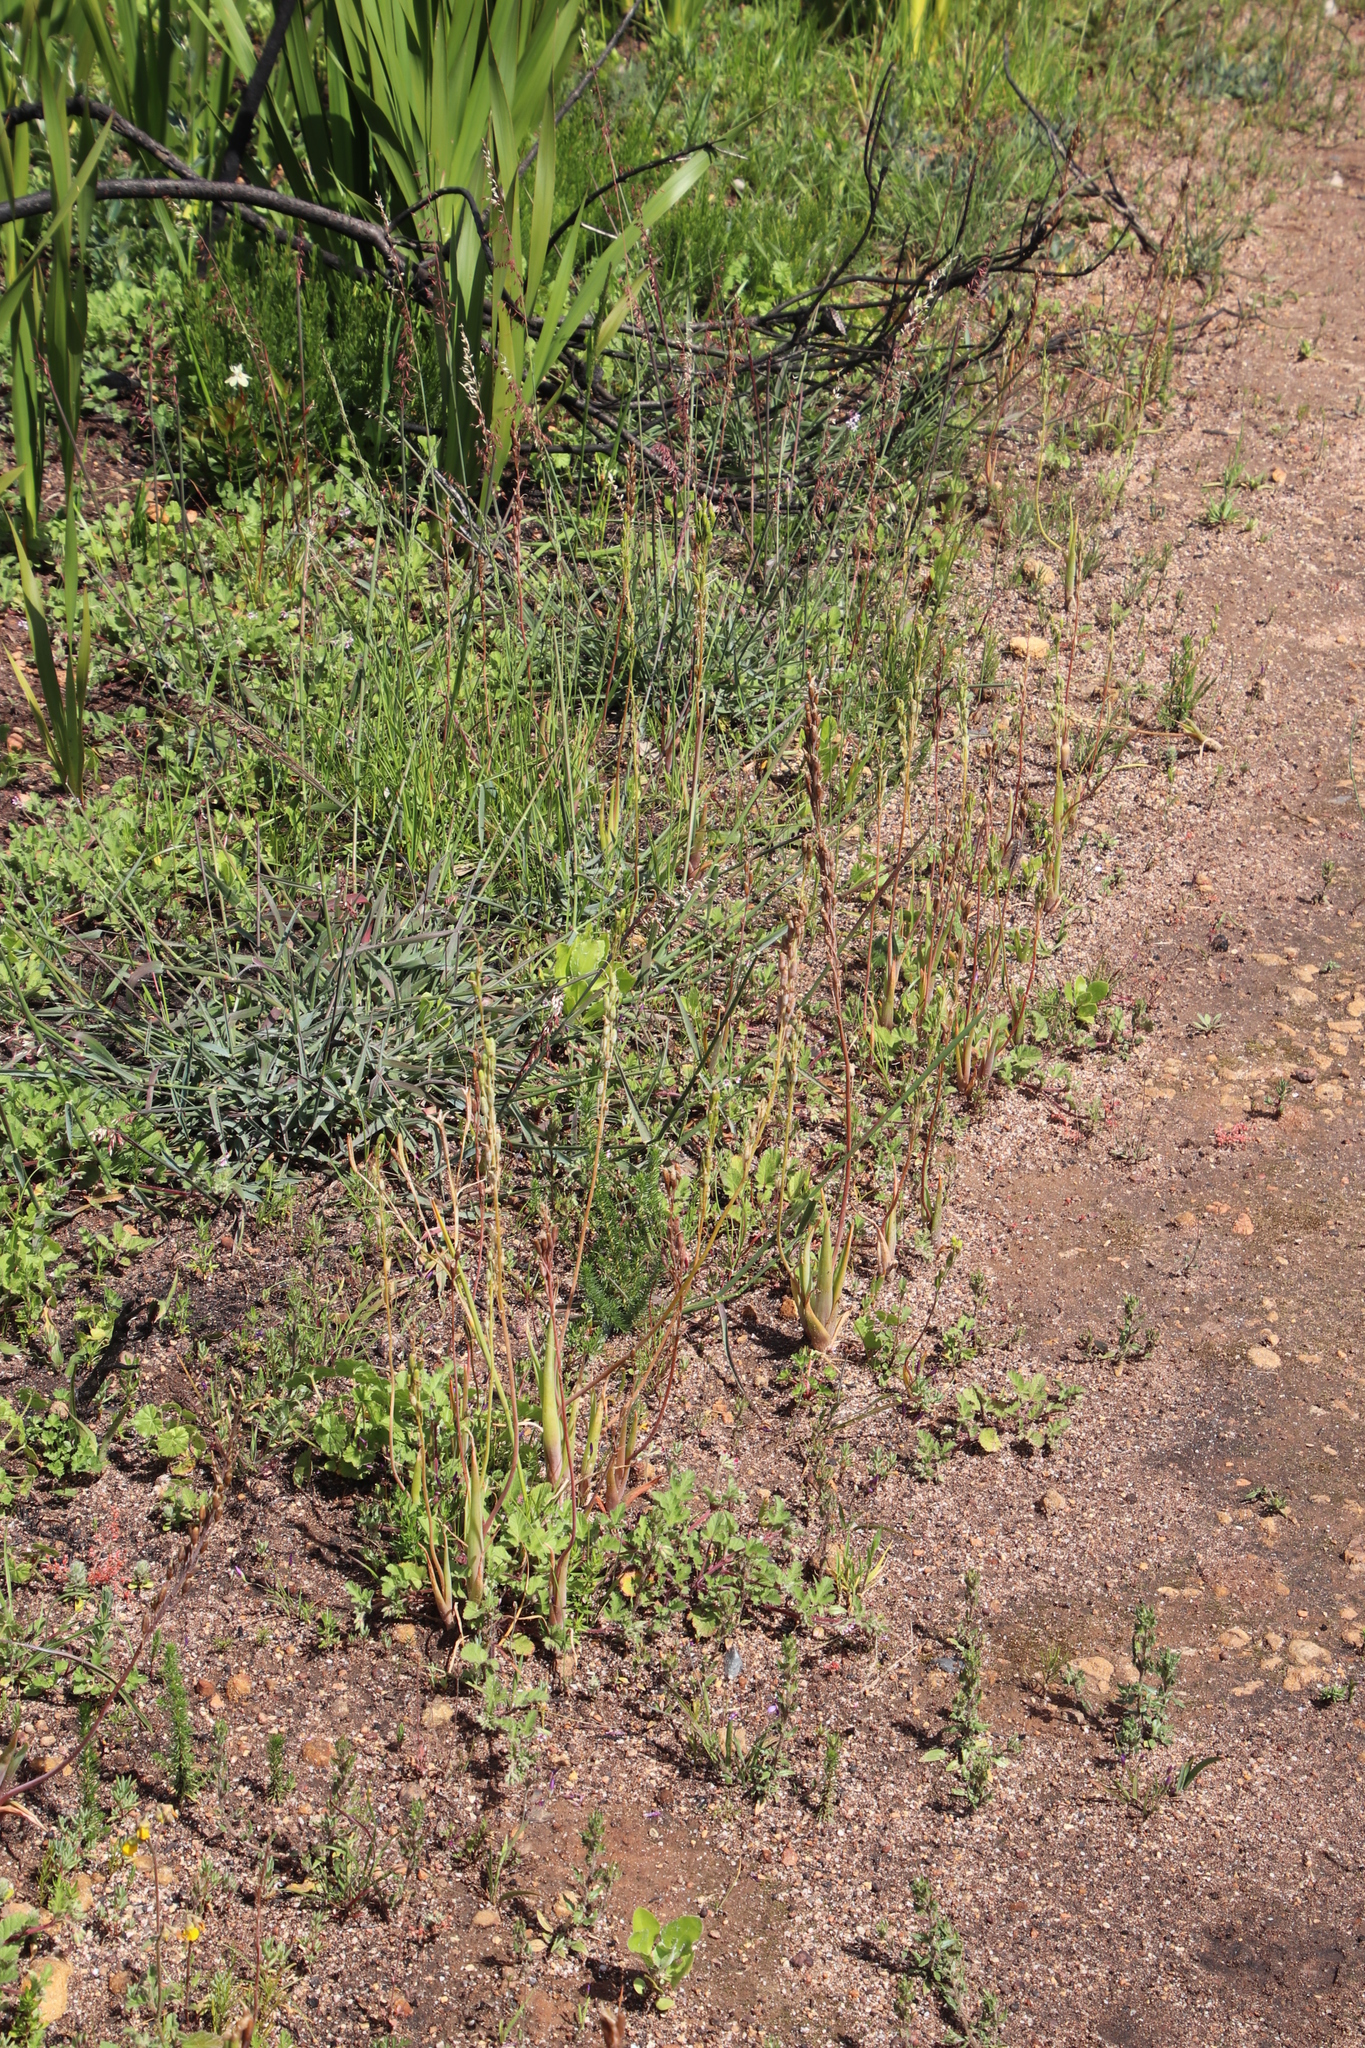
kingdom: Plantae
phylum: Tracheophyta
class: Liliopsida
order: Asparagales
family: Asphodelaceae
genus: Bulbine
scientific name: Bulbine praemorsa
